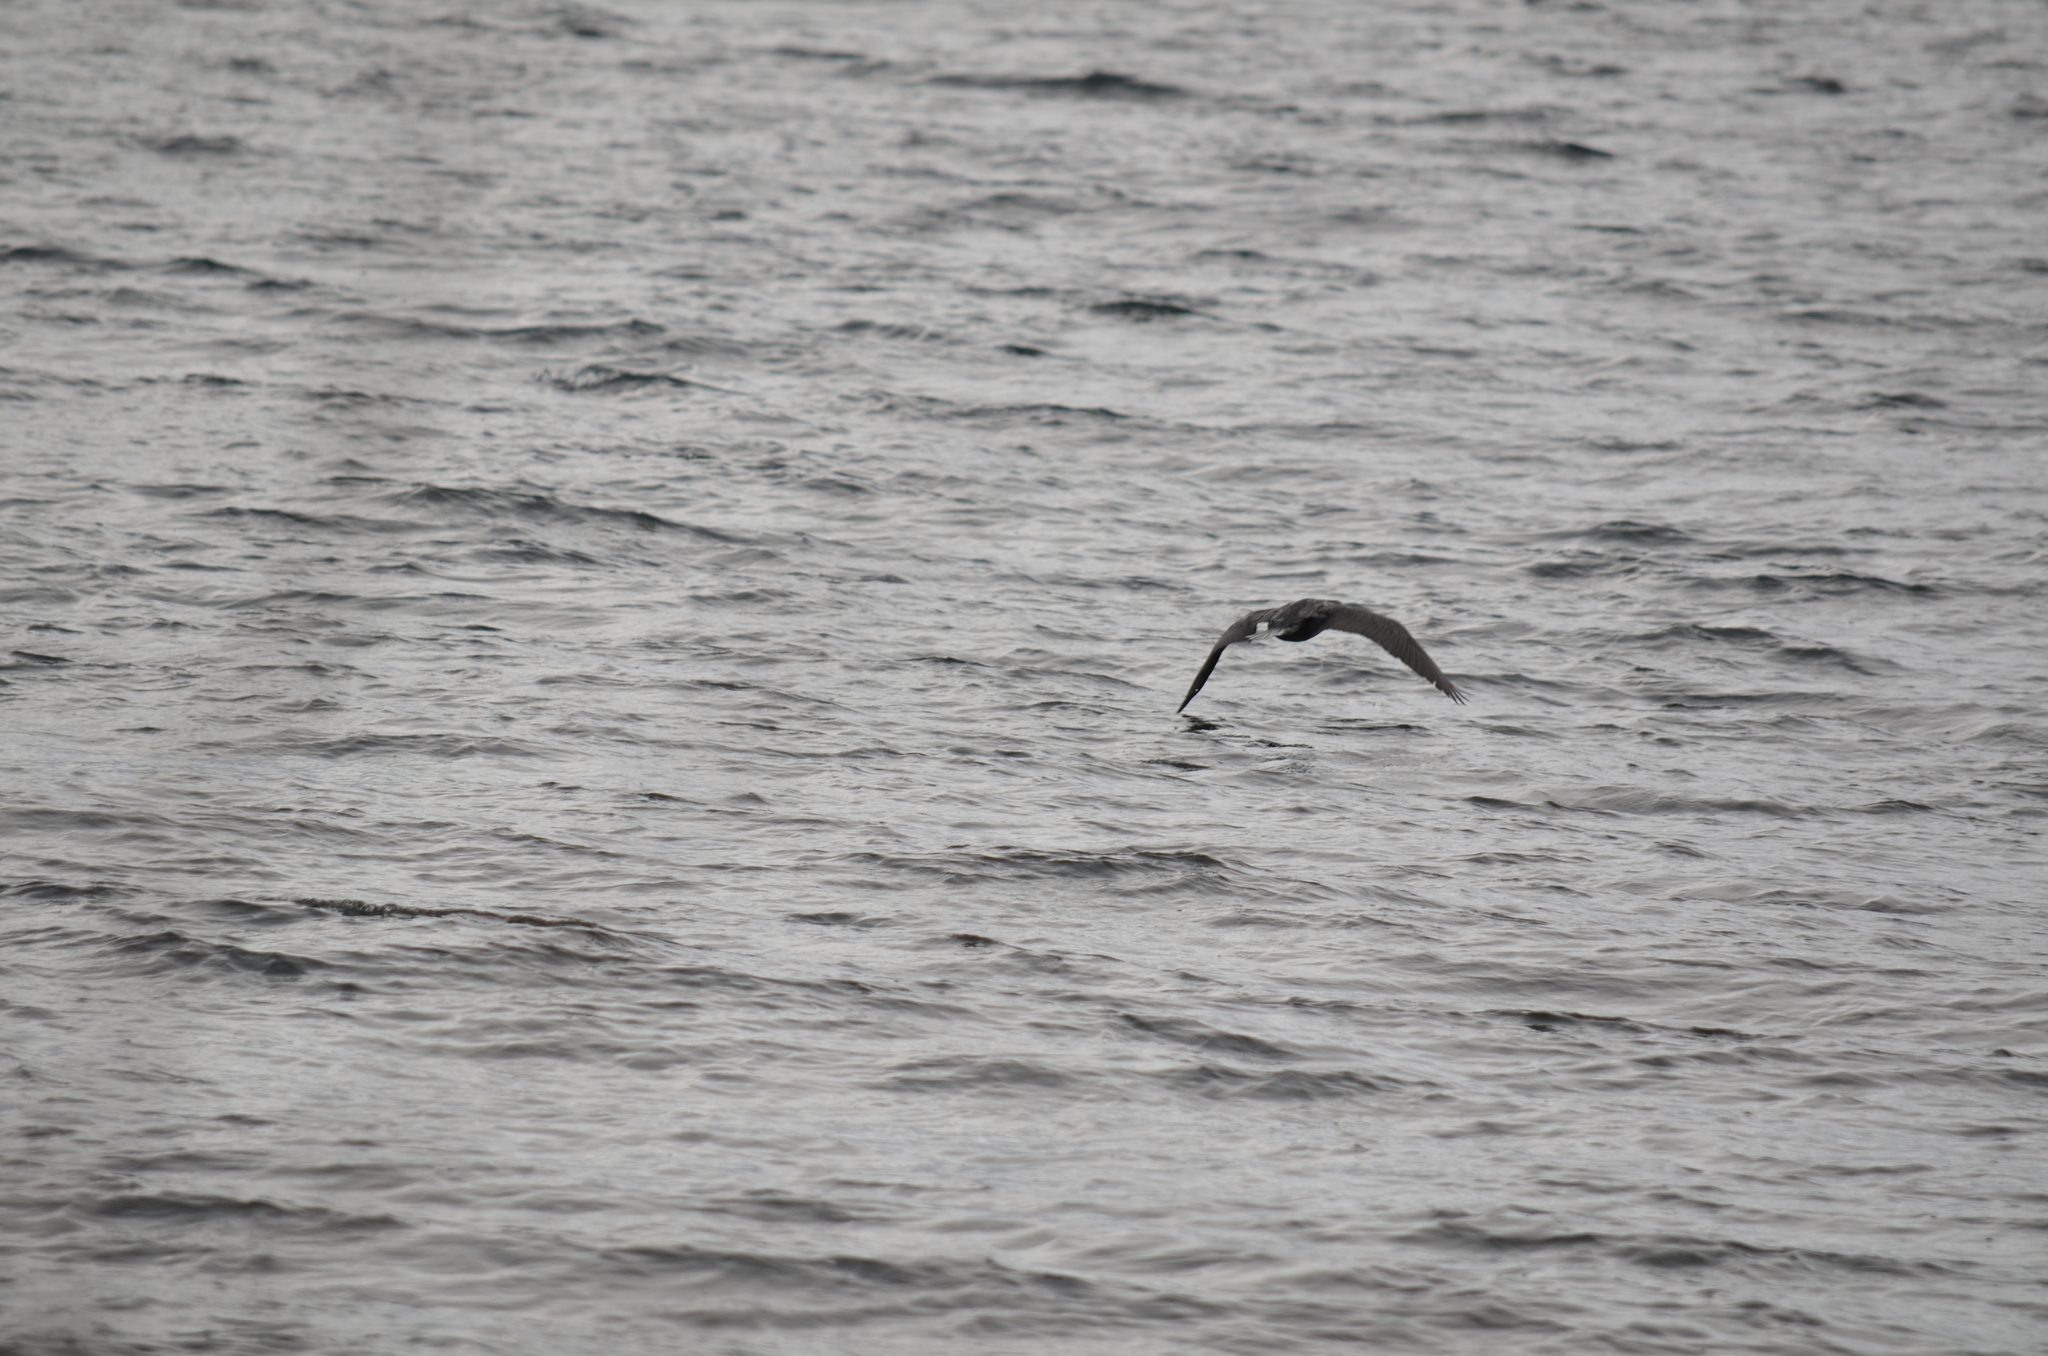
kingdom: Animalia
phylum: Chordata
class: Aves
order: Suliformes
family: Phalacrocoracidae
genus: Phalacrocorax
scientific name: Phalacrocorax auritus
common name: Double-crested cormorant
